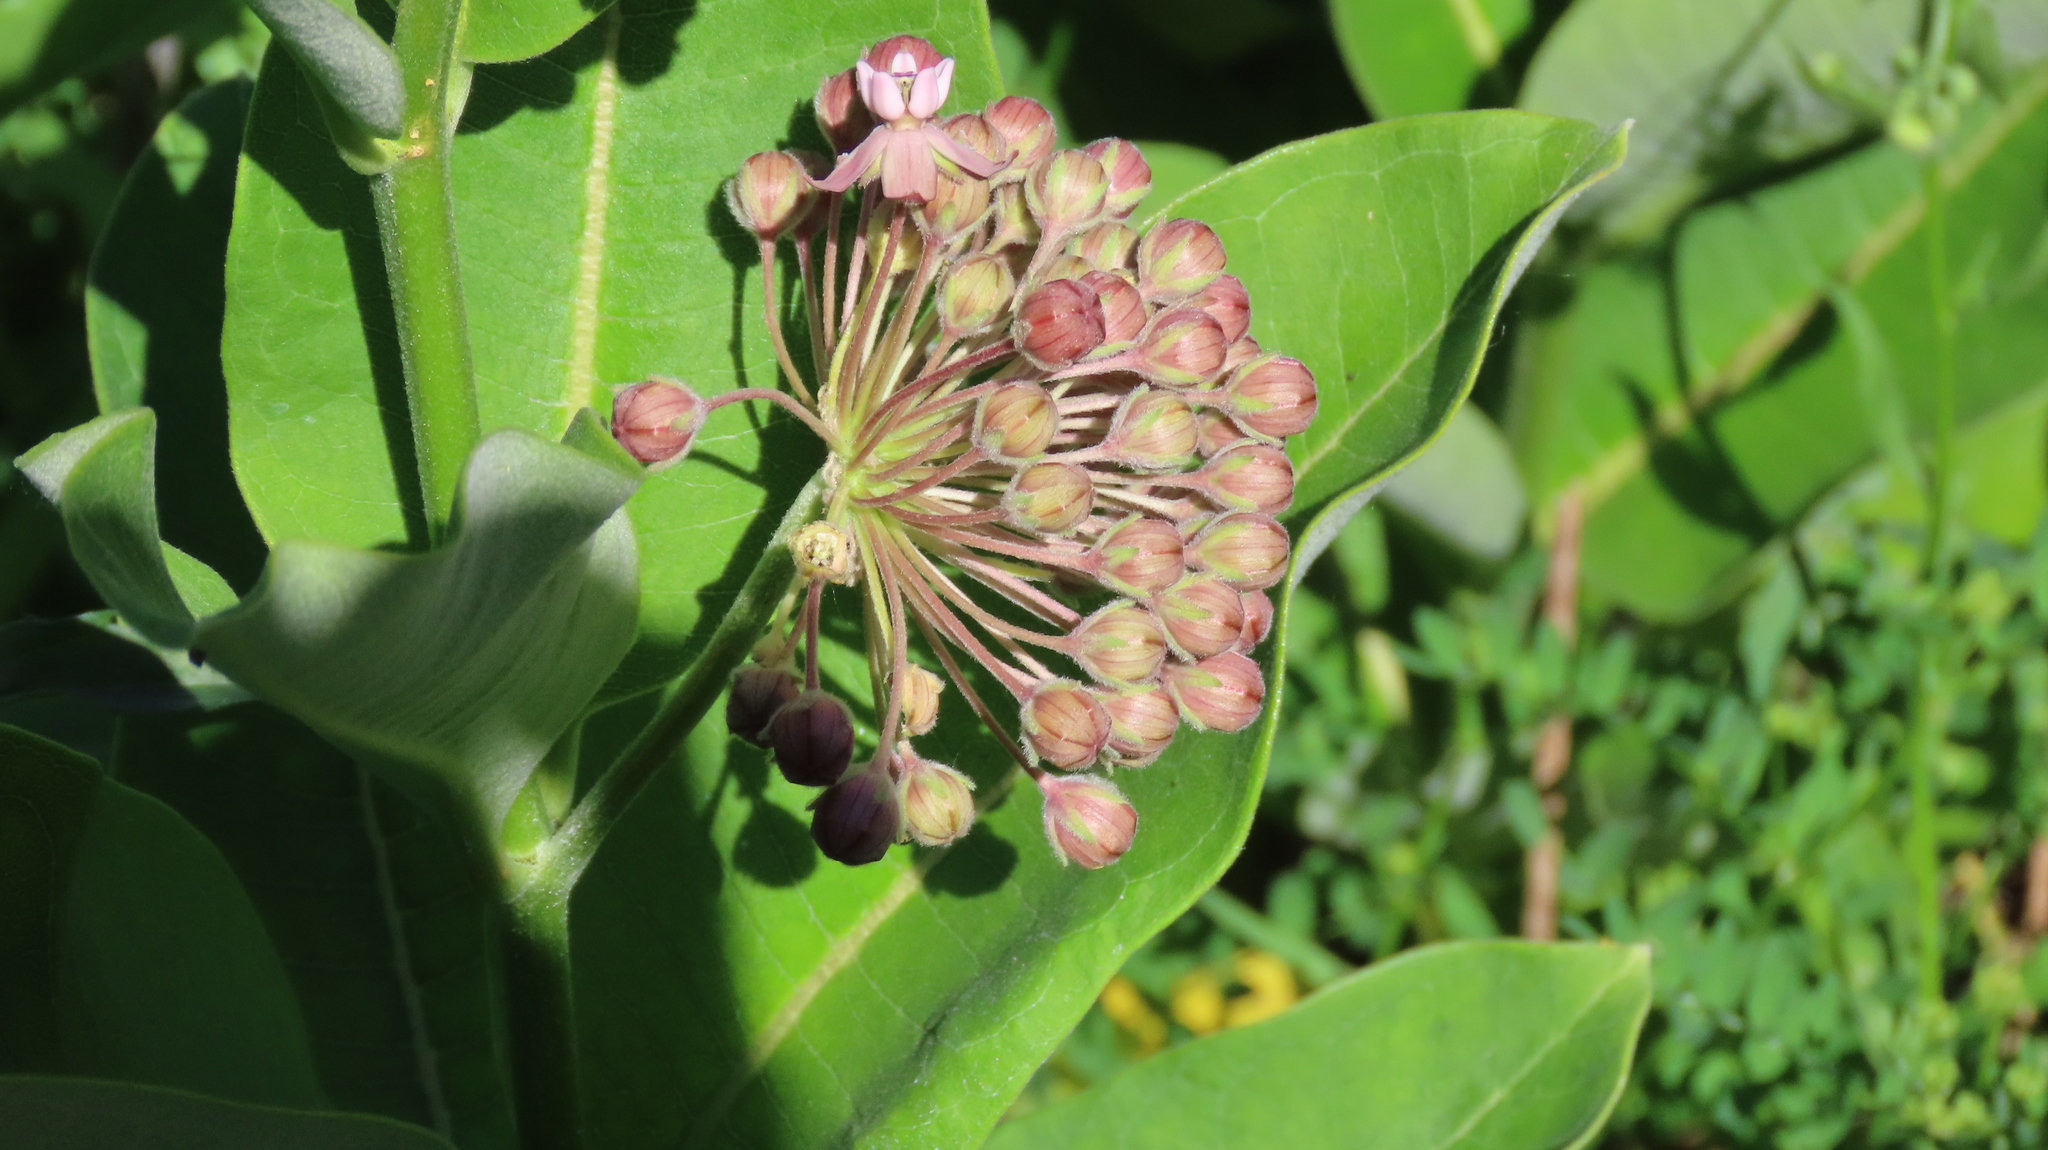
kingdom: Plantae
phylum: Tracheophyta
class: Magnoliopsida
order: Gentianales
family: Apocynaceae
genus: Asclepias
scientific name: Asclepias syriaca
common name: Common milkweed
